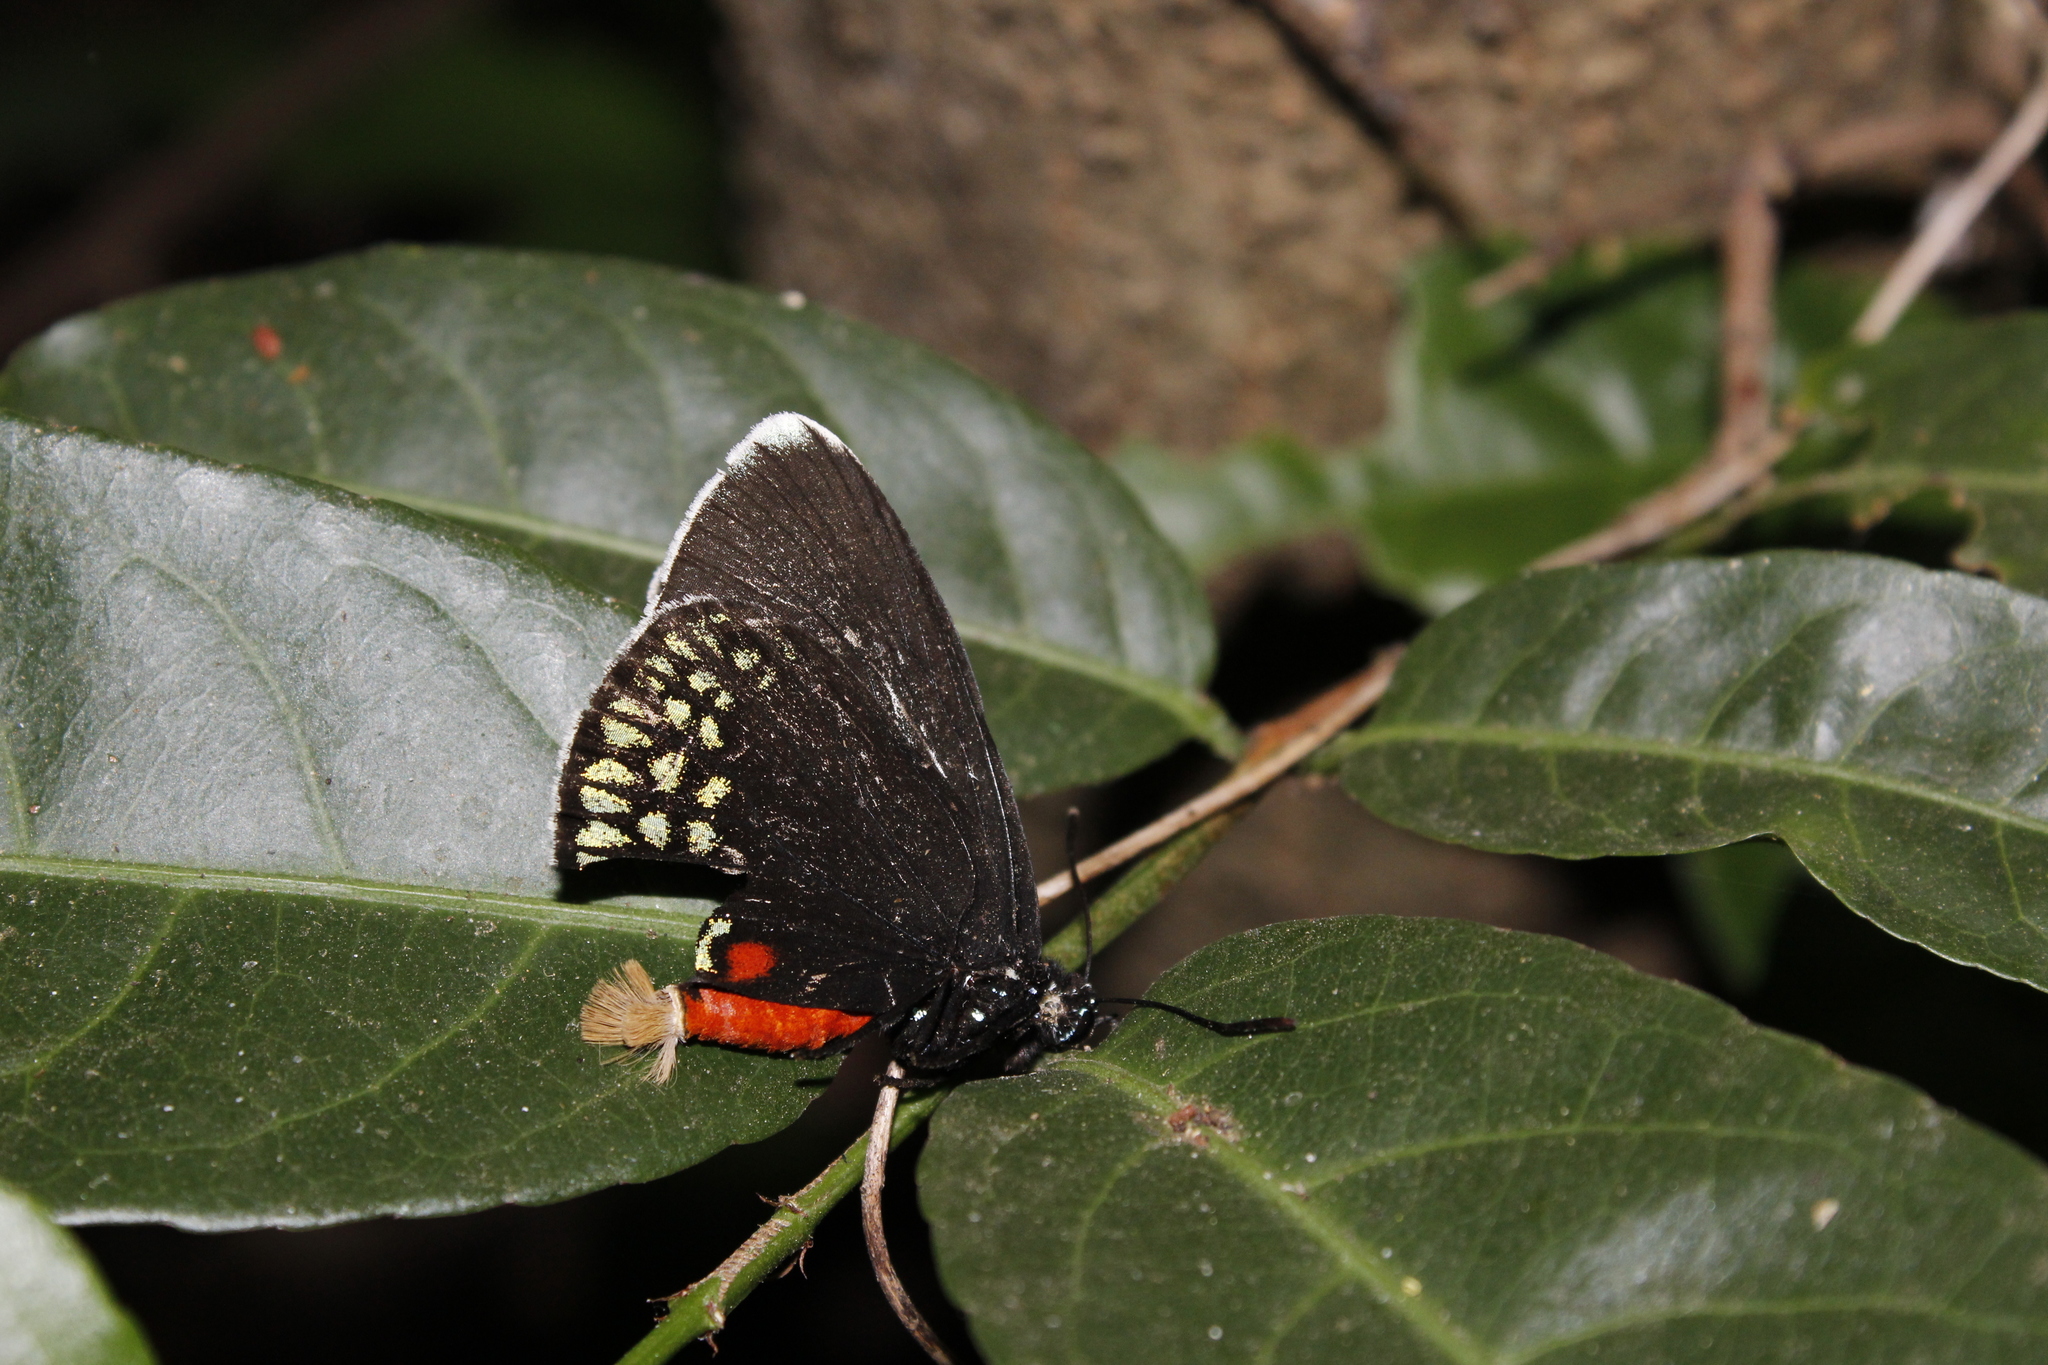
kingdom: Animalia
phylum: Arthropoda
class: Insecta
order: Lepidoptera
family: Lycaenidae
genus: Eumaeus
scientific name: Eumaeus toxea
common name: Mexican cycadian
